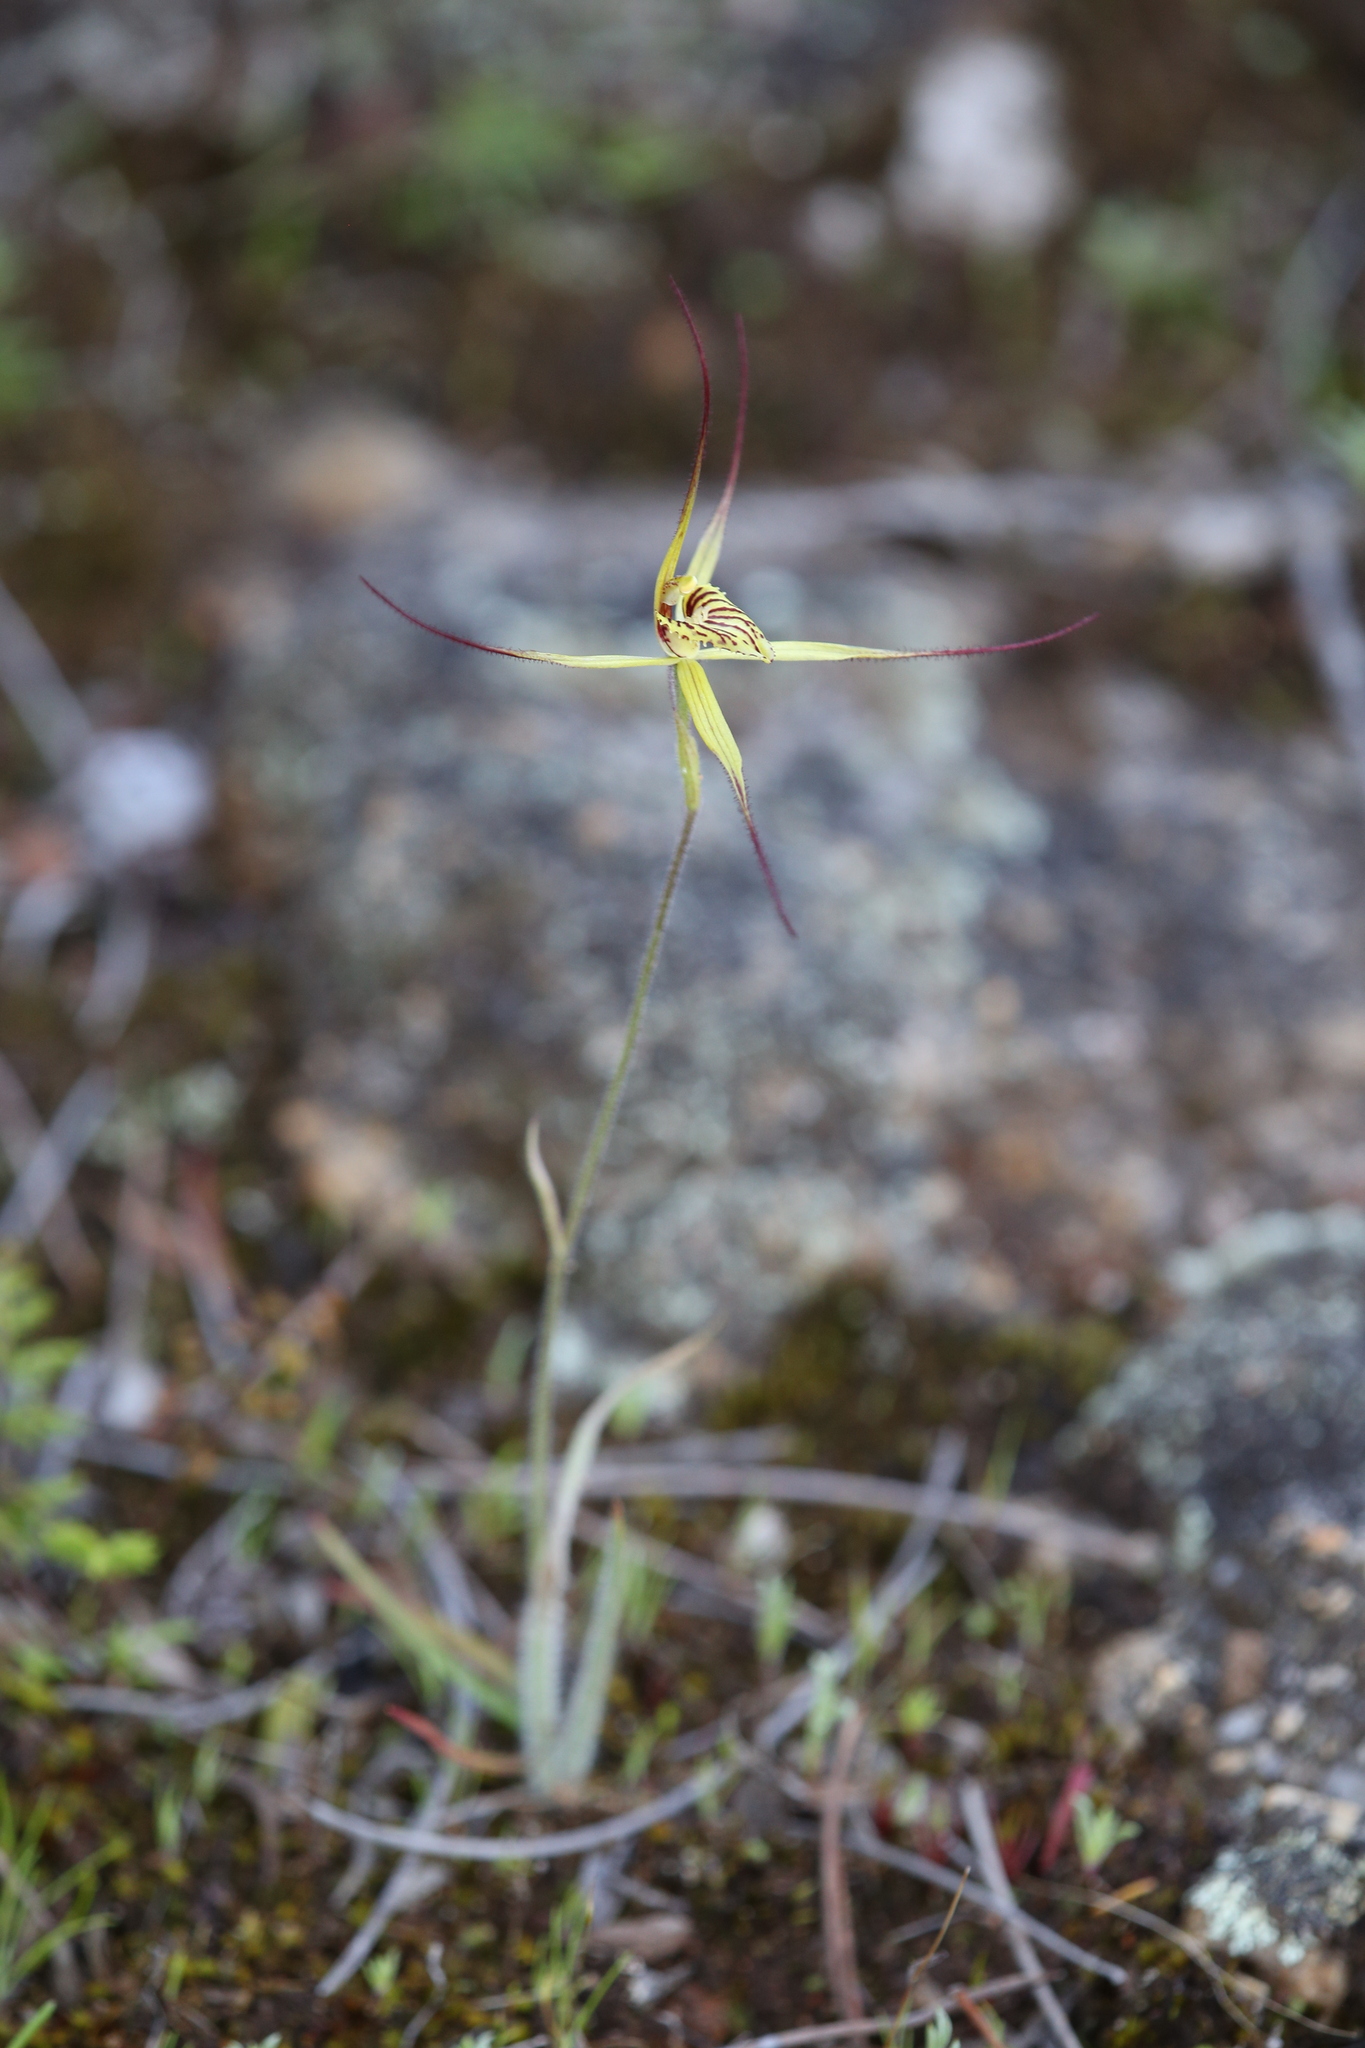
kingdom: Plantae
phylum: Tracheophyta
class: Liliopsida
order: Asparagales
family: Orchidaceae
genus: Caladenia
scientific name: Caladenia caesarea
